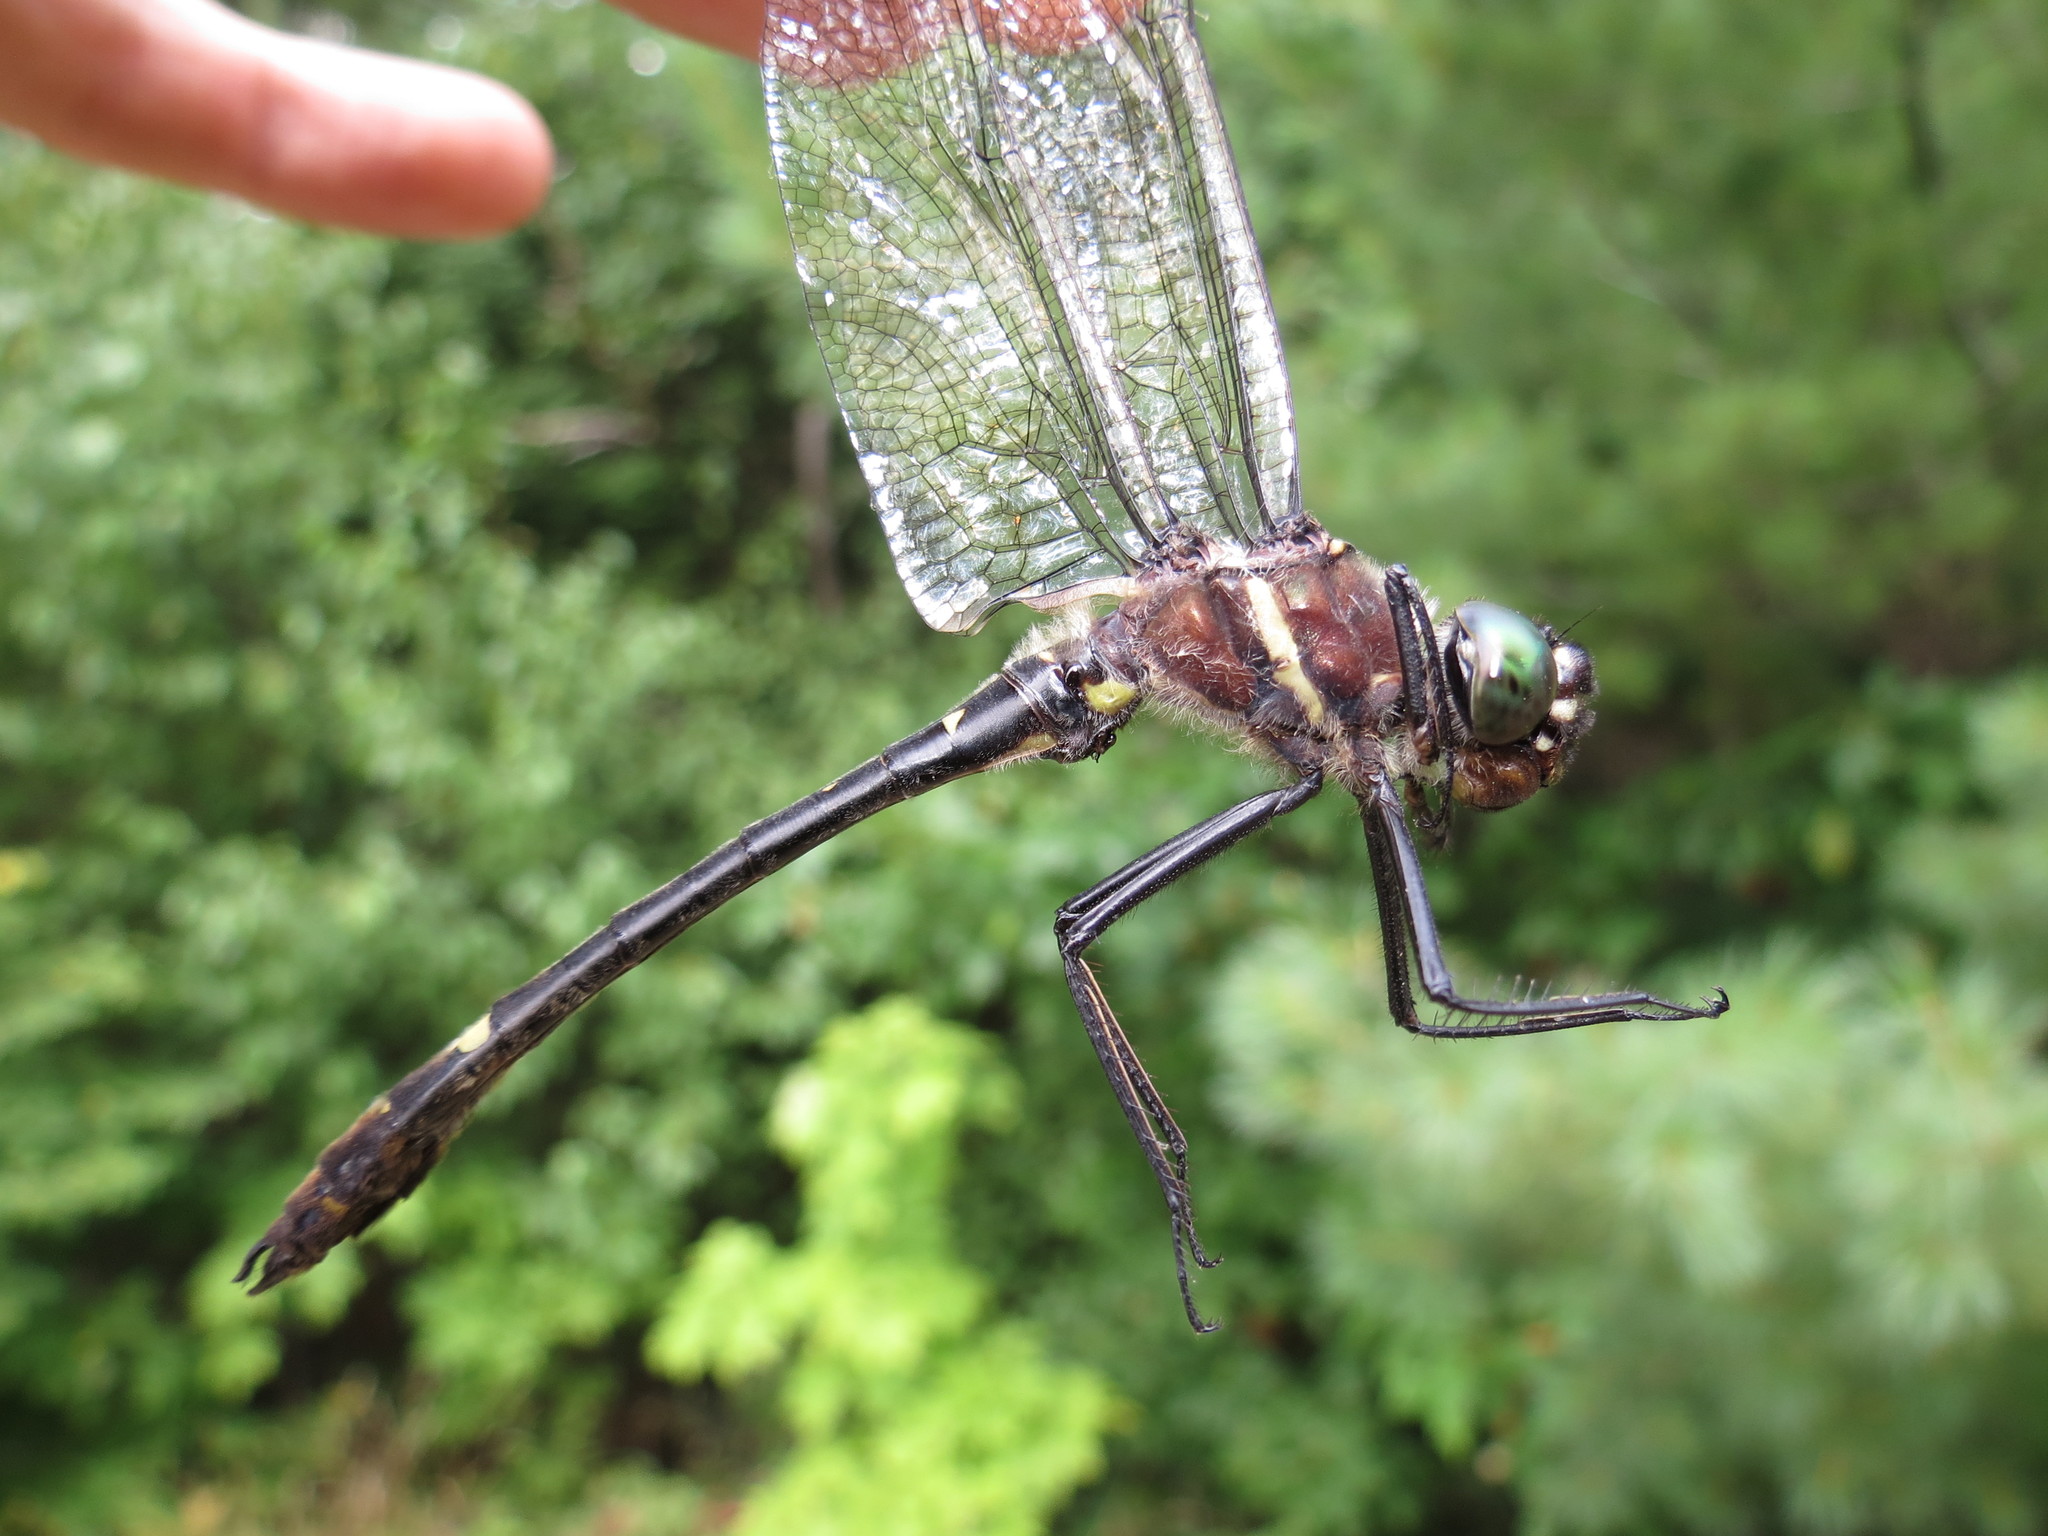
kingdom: Animalia
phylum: Arthropoda
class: Insecta
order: Odonata
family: Macromiidae
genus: Macromia
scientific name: Macromia illinoiensis
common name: Swift river cruiser
